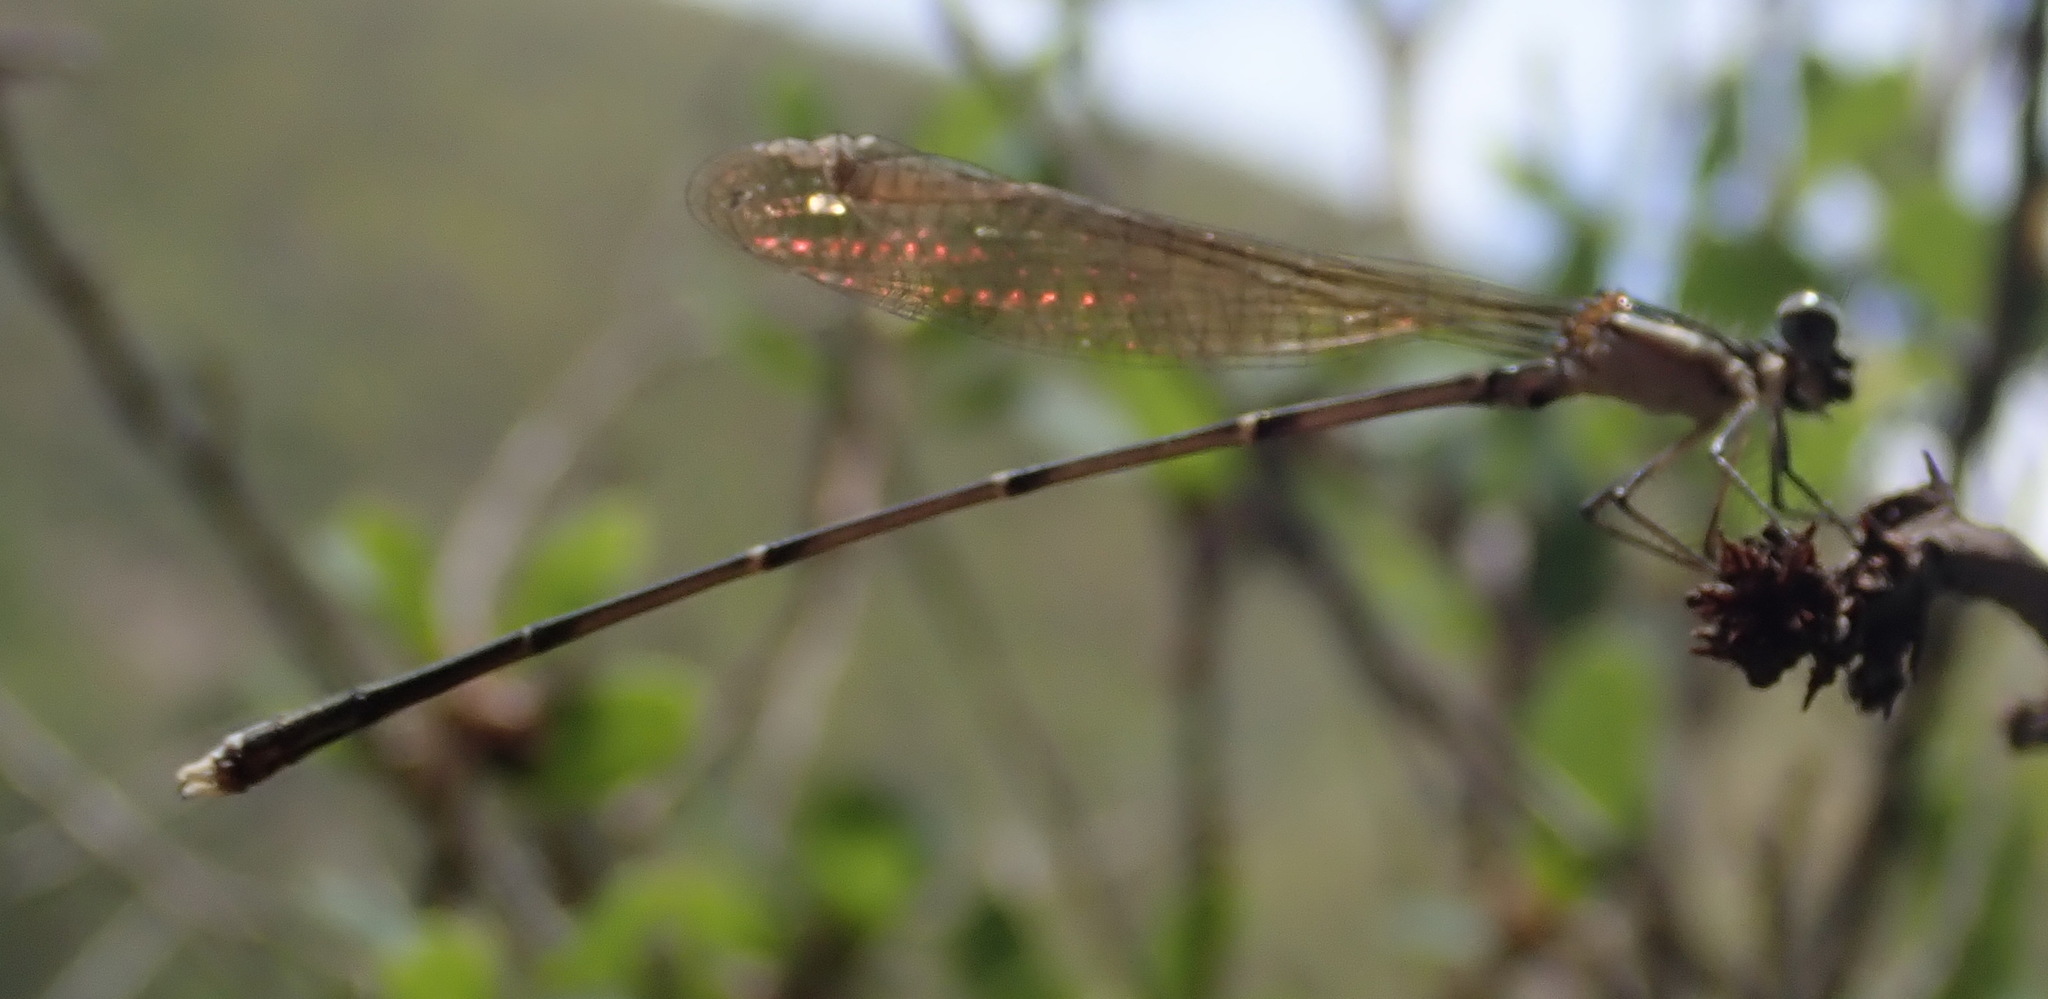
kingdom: Animalia
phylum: Arthropoda
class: Insecta
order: Odonata
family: Platycnemididae
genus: Allocnemis
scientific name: Allocnemis leucosticta
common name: Goldtail
